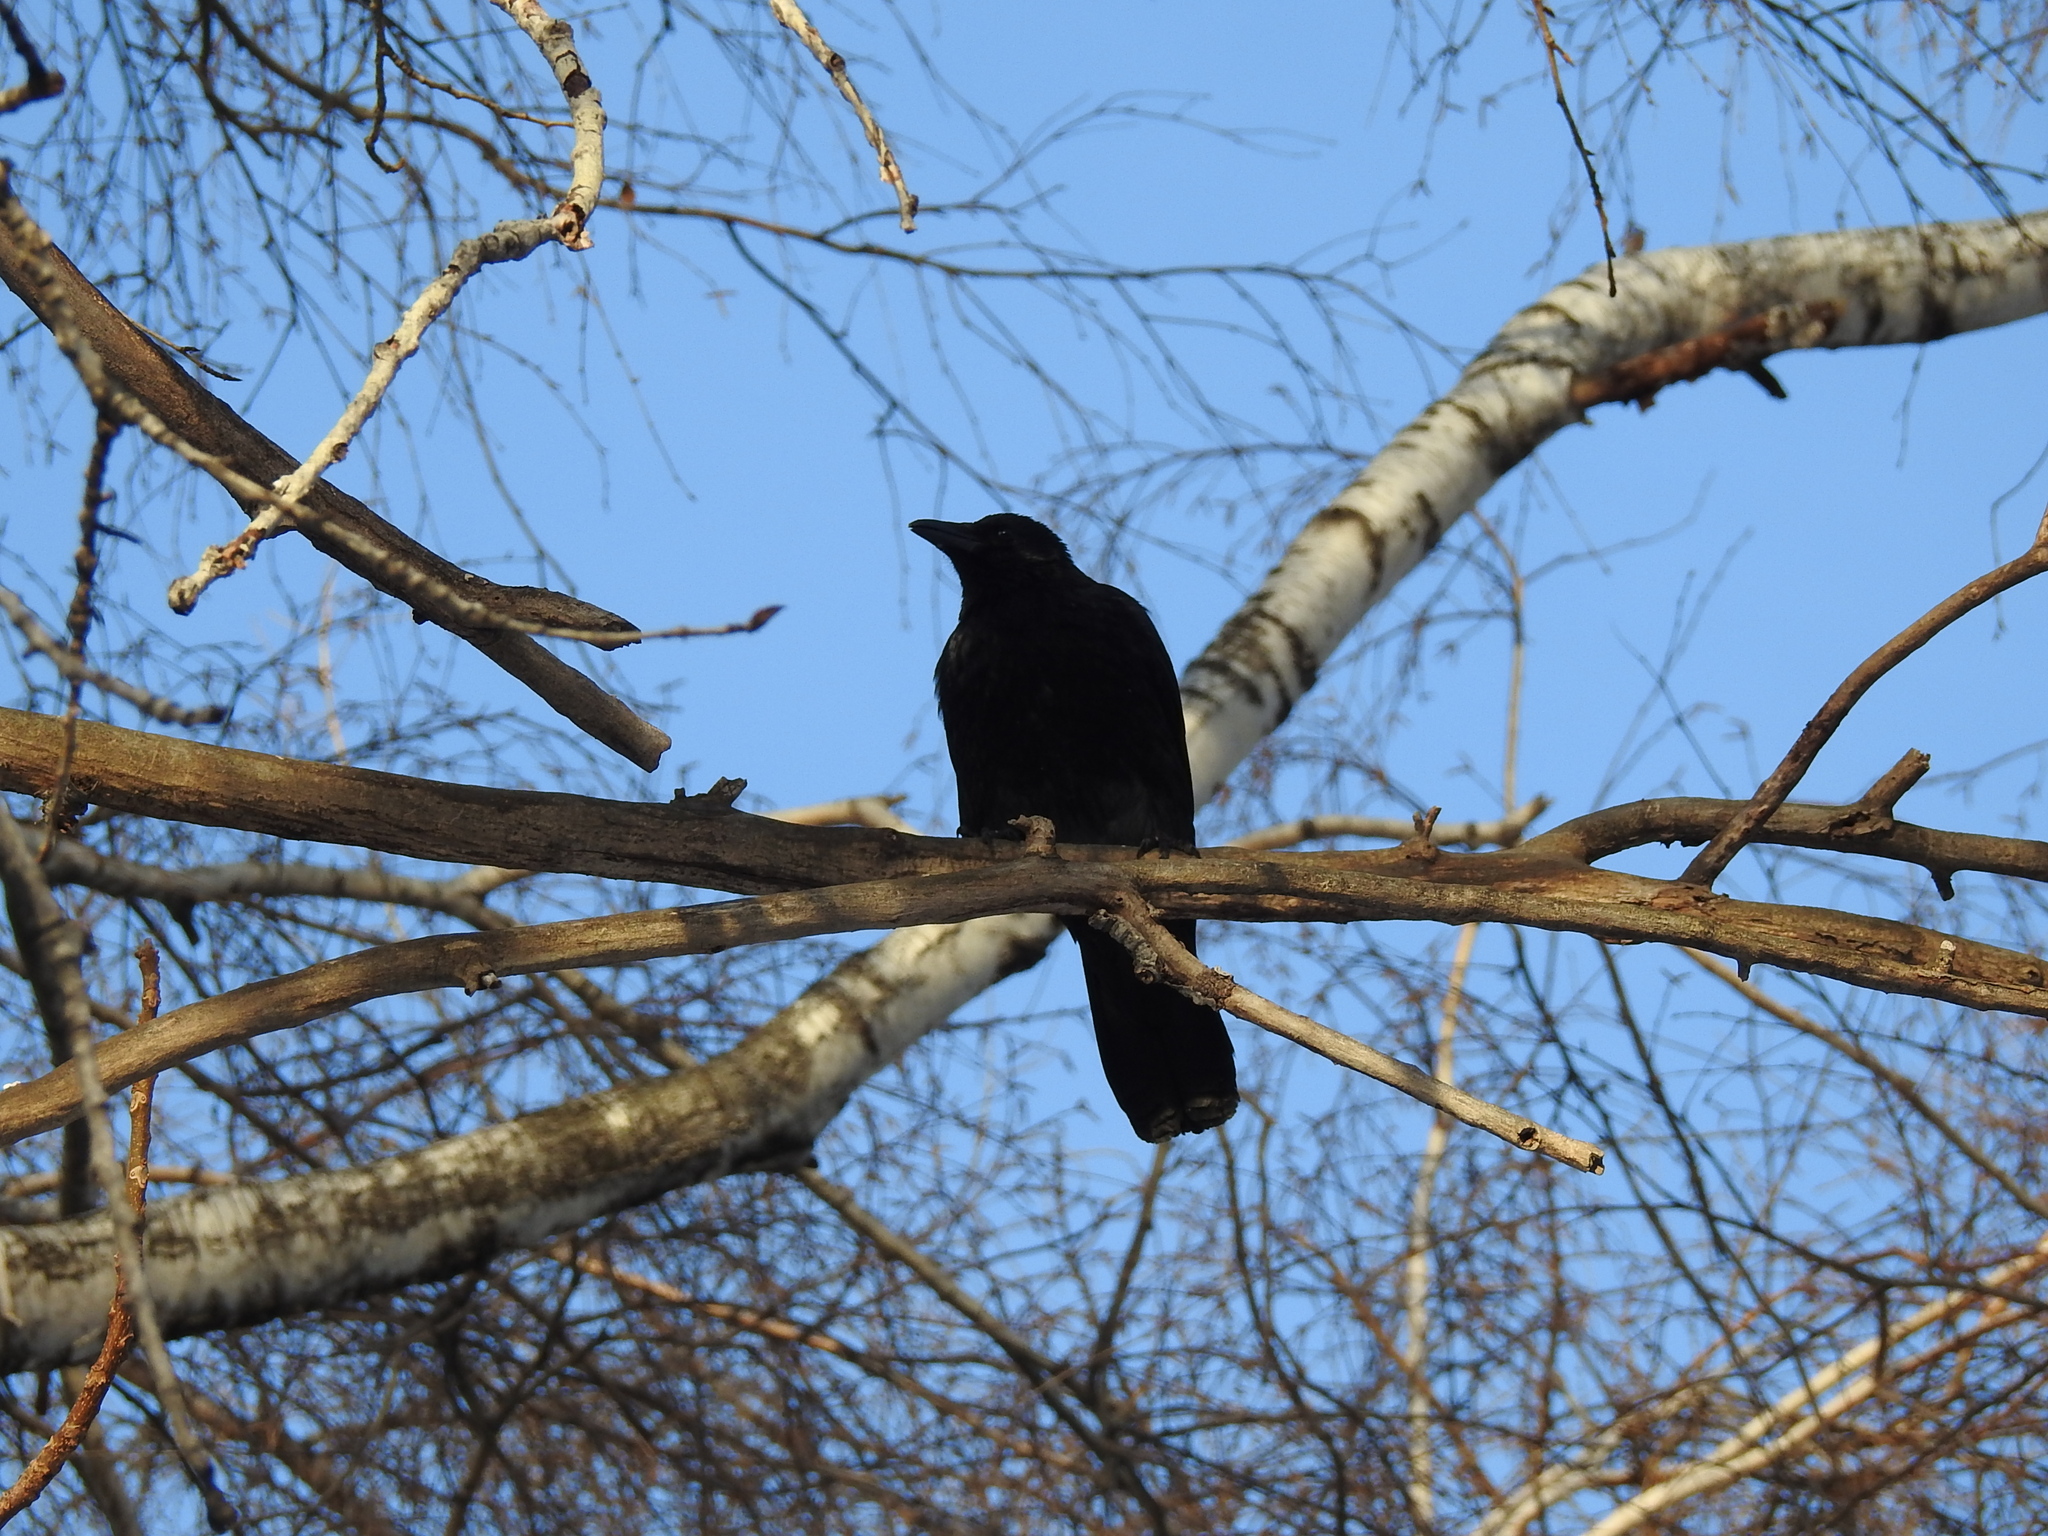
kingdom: Animalia
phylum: Chordata
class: Aves
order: Passeriformes
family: Corvidae
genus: Corvus
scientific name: Corvus corone
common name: Carrion crow
